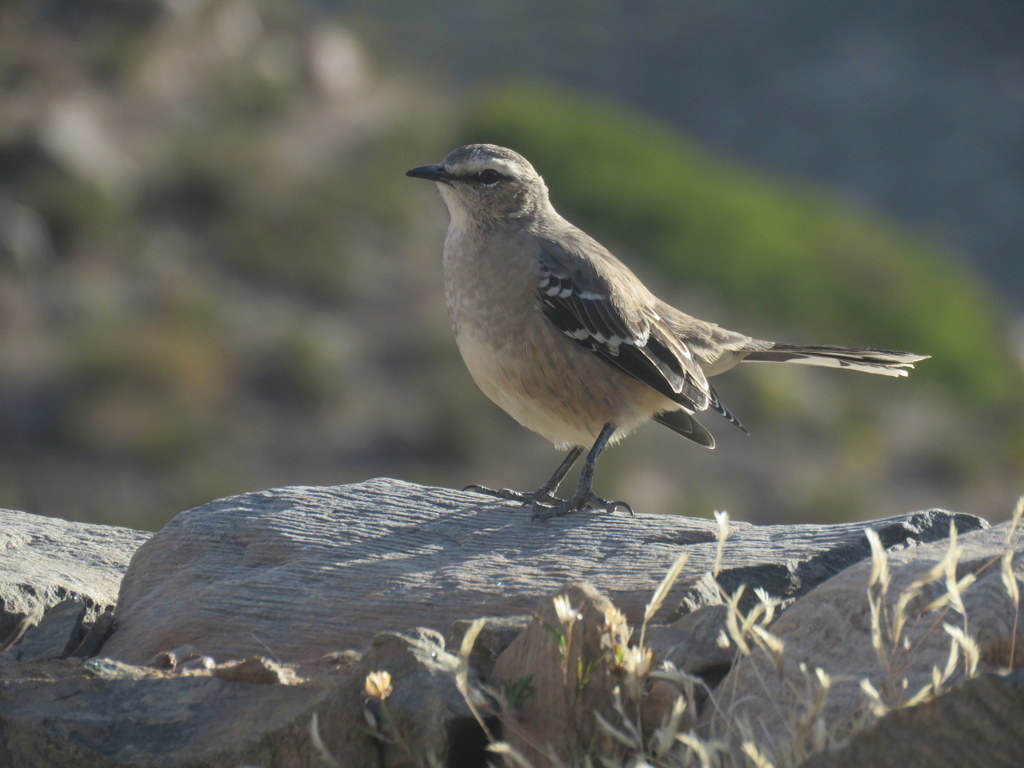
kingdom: Animalia
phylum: Chordata
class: Aves
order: Passeriformes
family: Mimidae
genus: Mimus
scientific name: Mimus patagonicus
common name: Patagonian mockingbird
